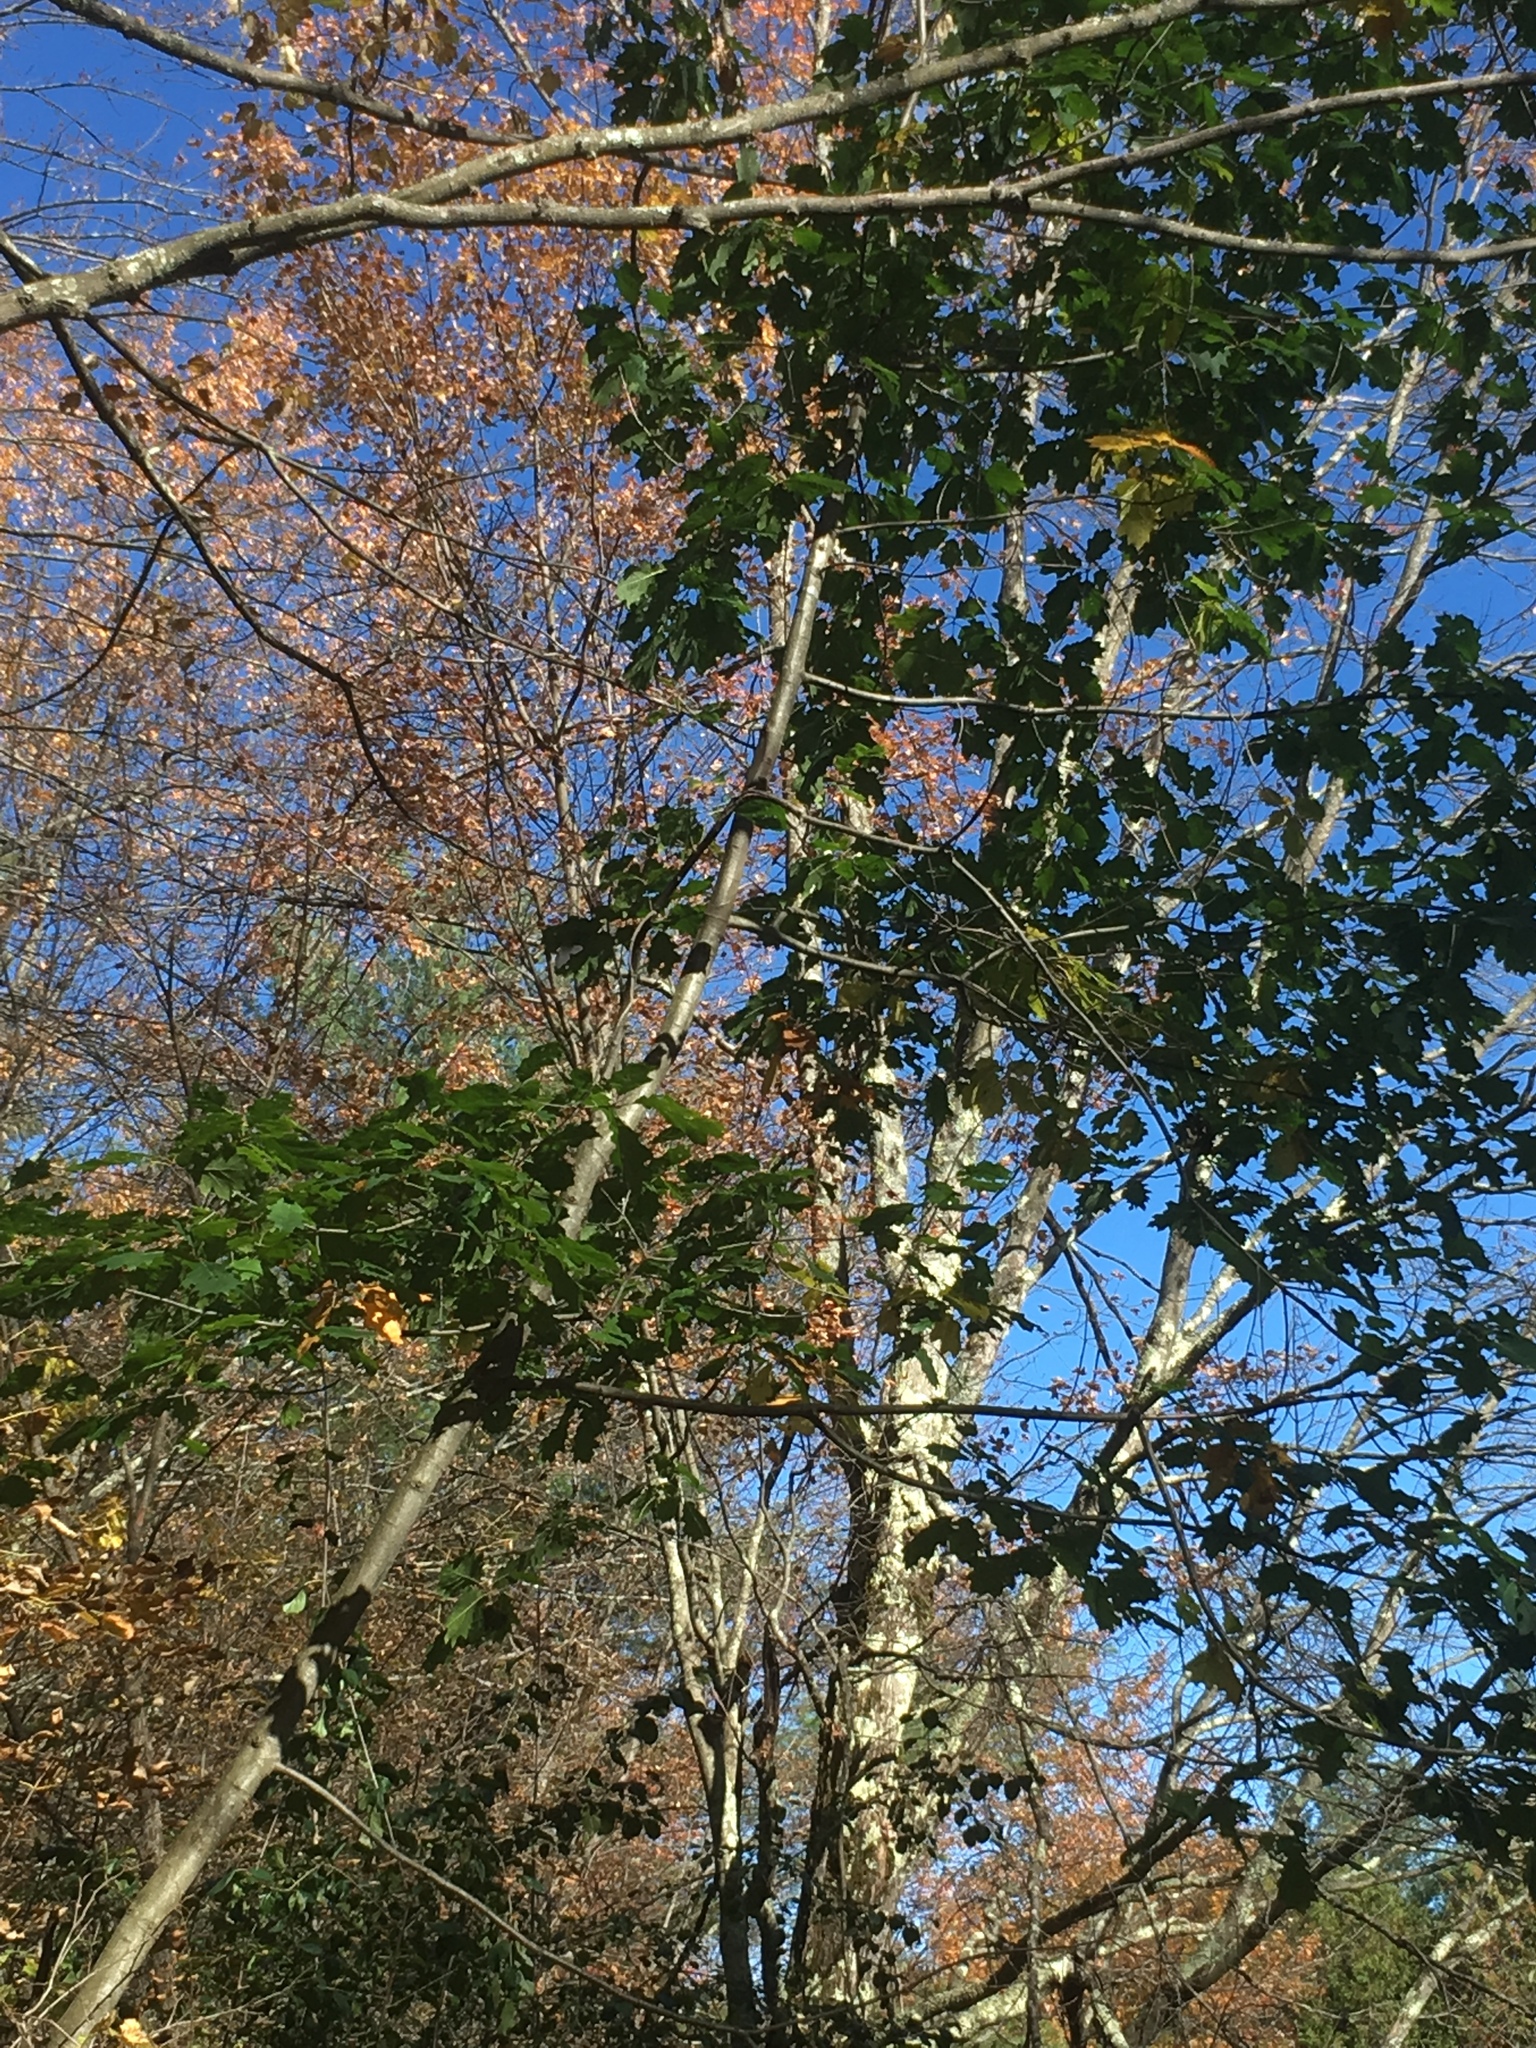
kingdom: Plantae
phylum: Tracheophyta
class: Magnoliopsida
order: Fagales
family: Fagaceae
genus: Quercus
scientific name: Quercus rubra
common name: Red oak
